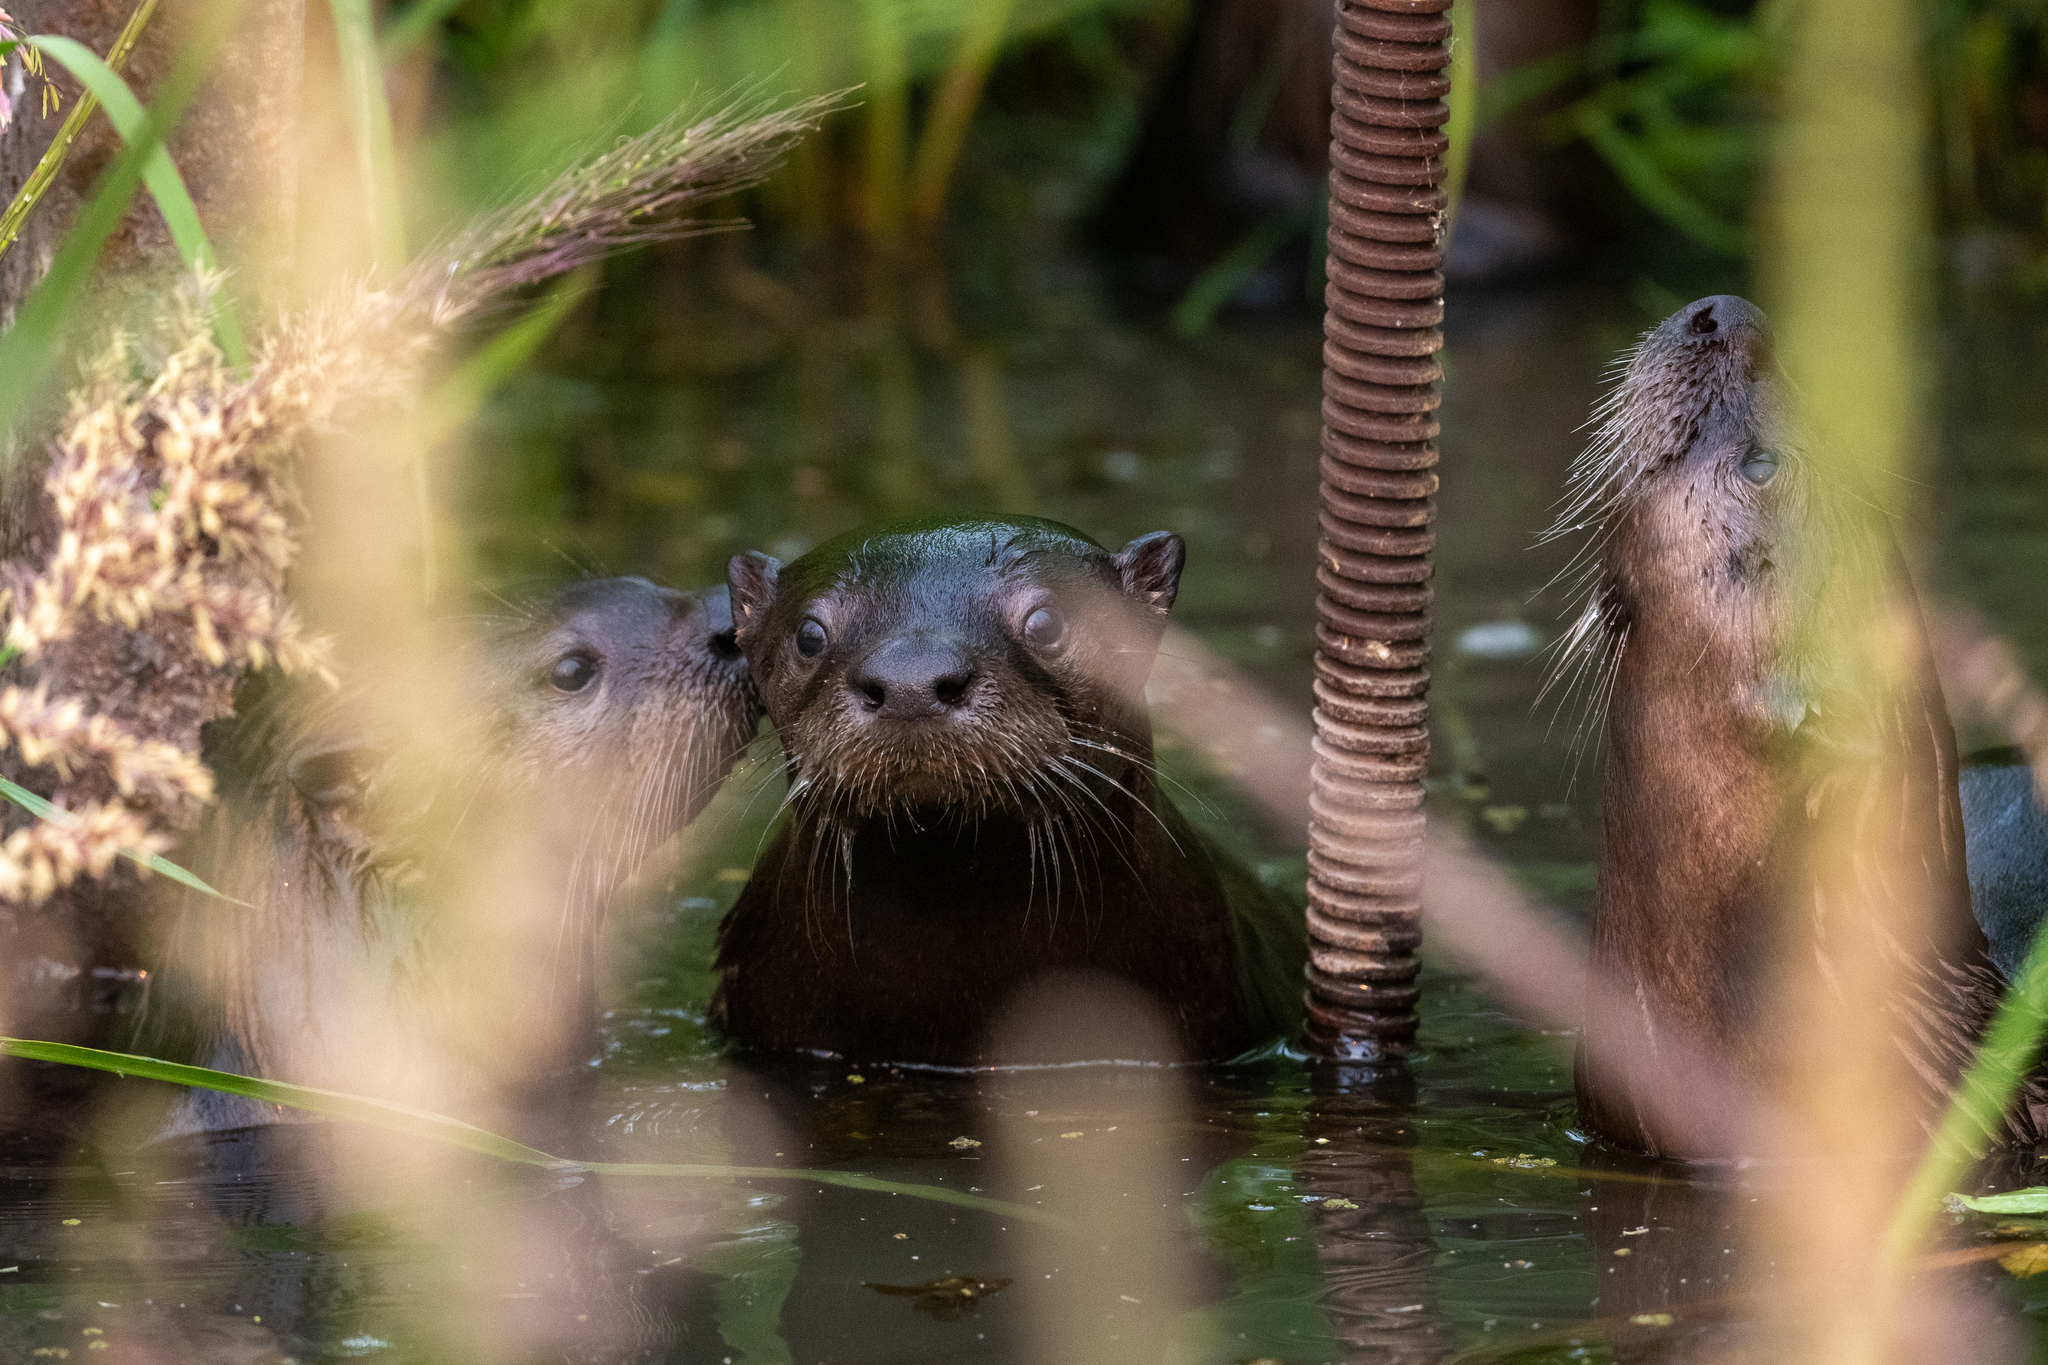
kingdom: Animalia
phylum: Chordata
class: Mammalia
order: Carnivora
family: Mustelidae
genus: Lontra
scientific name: Lontra canadensis
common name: North american river otter
